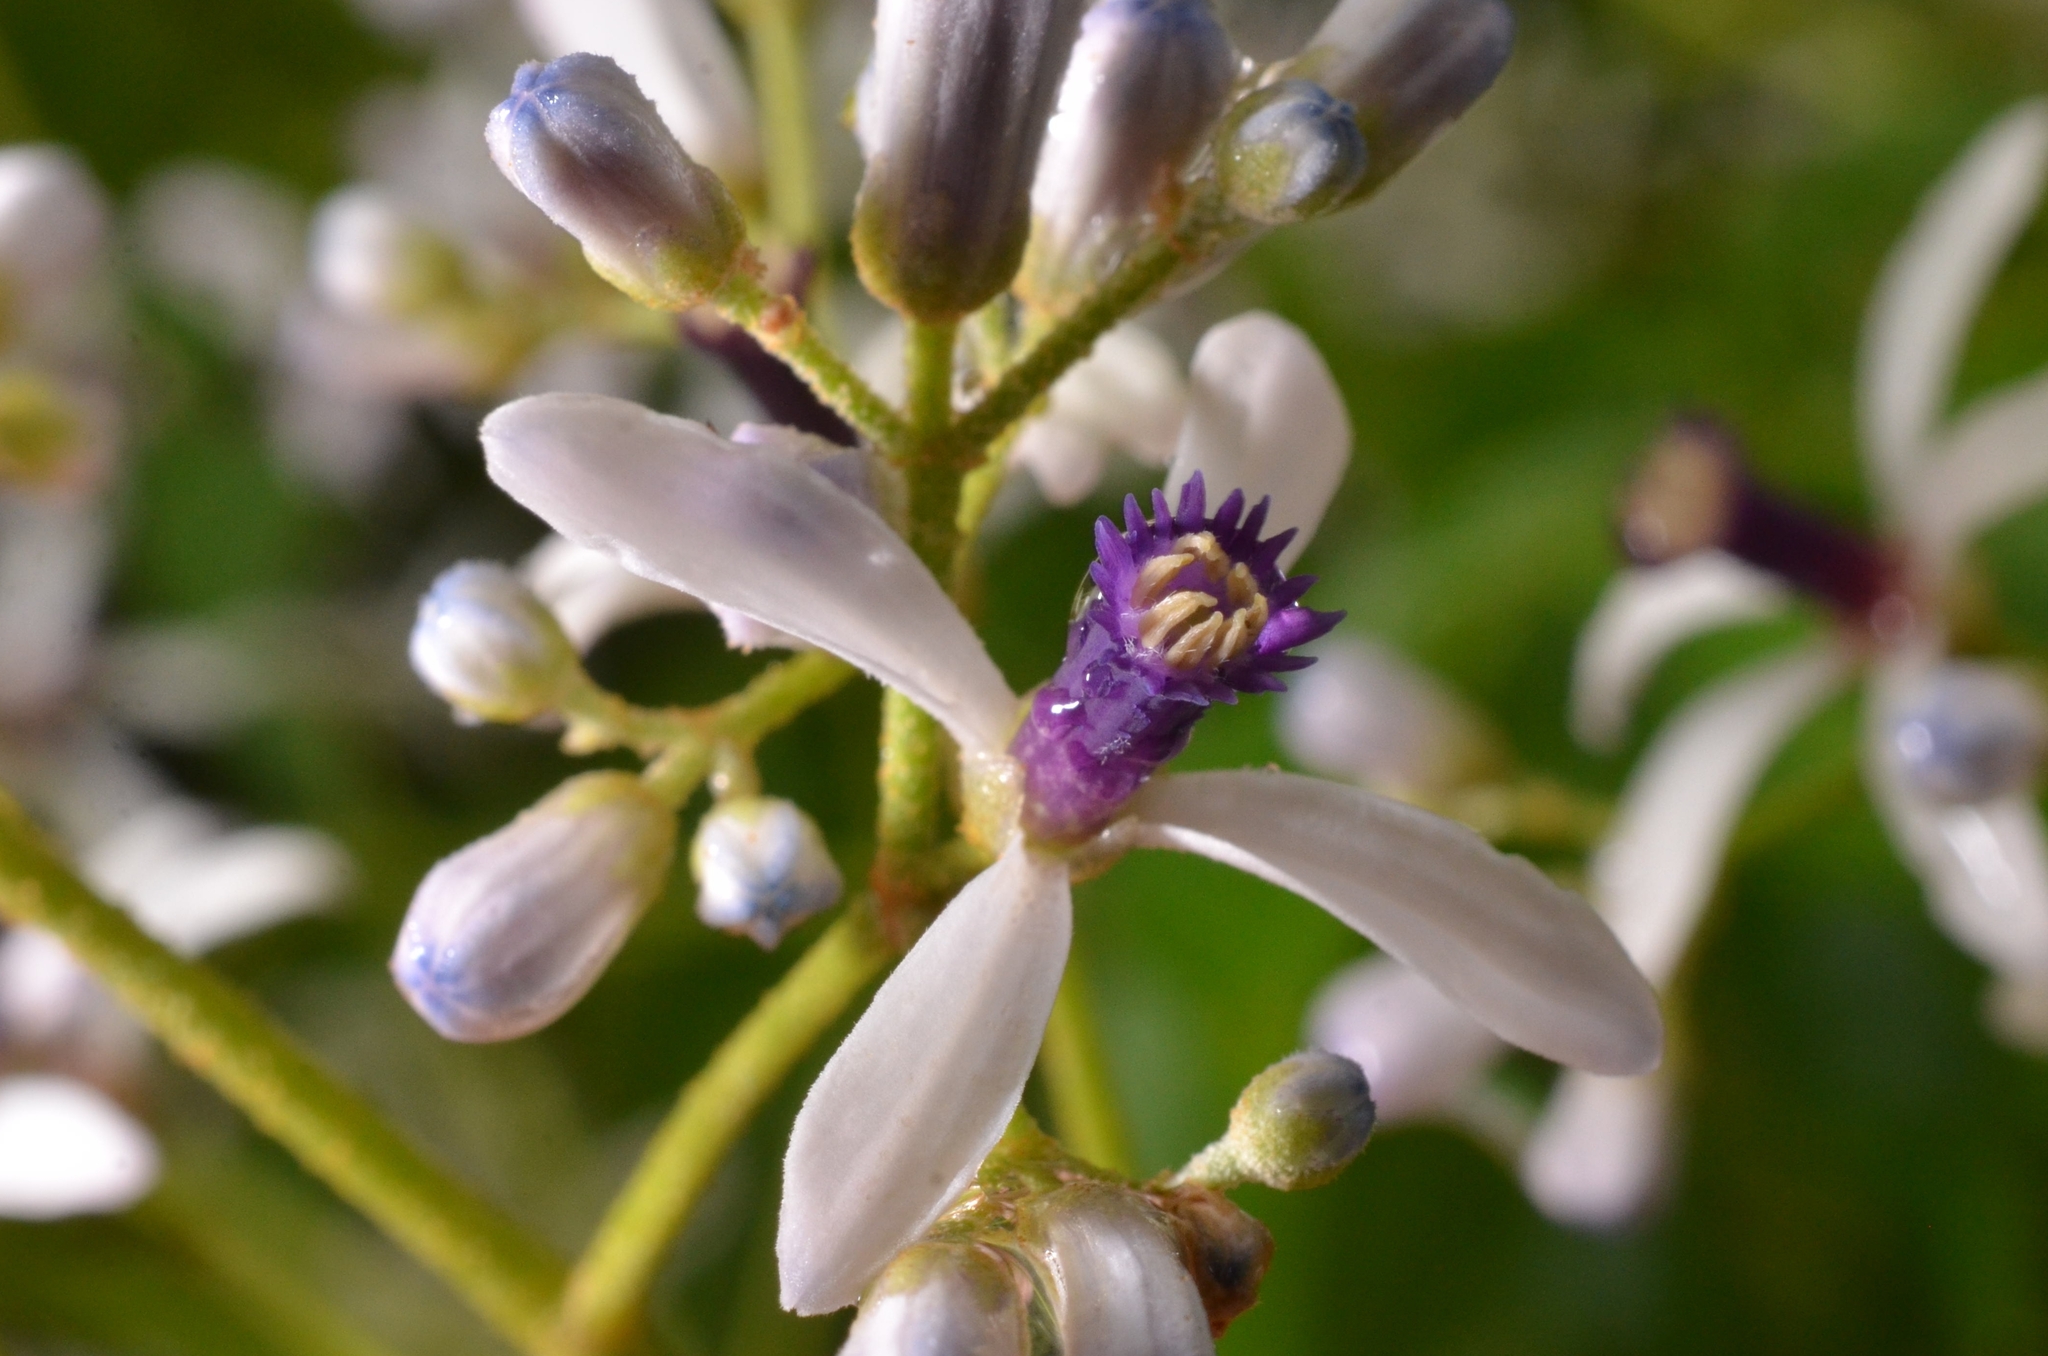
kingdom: Plantae
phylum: Tracheophyta
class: Magnoliopsida
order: Sapindales
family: Meliaceae
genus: Melia
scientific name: Melia azedarach
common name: Chinaberrytree
